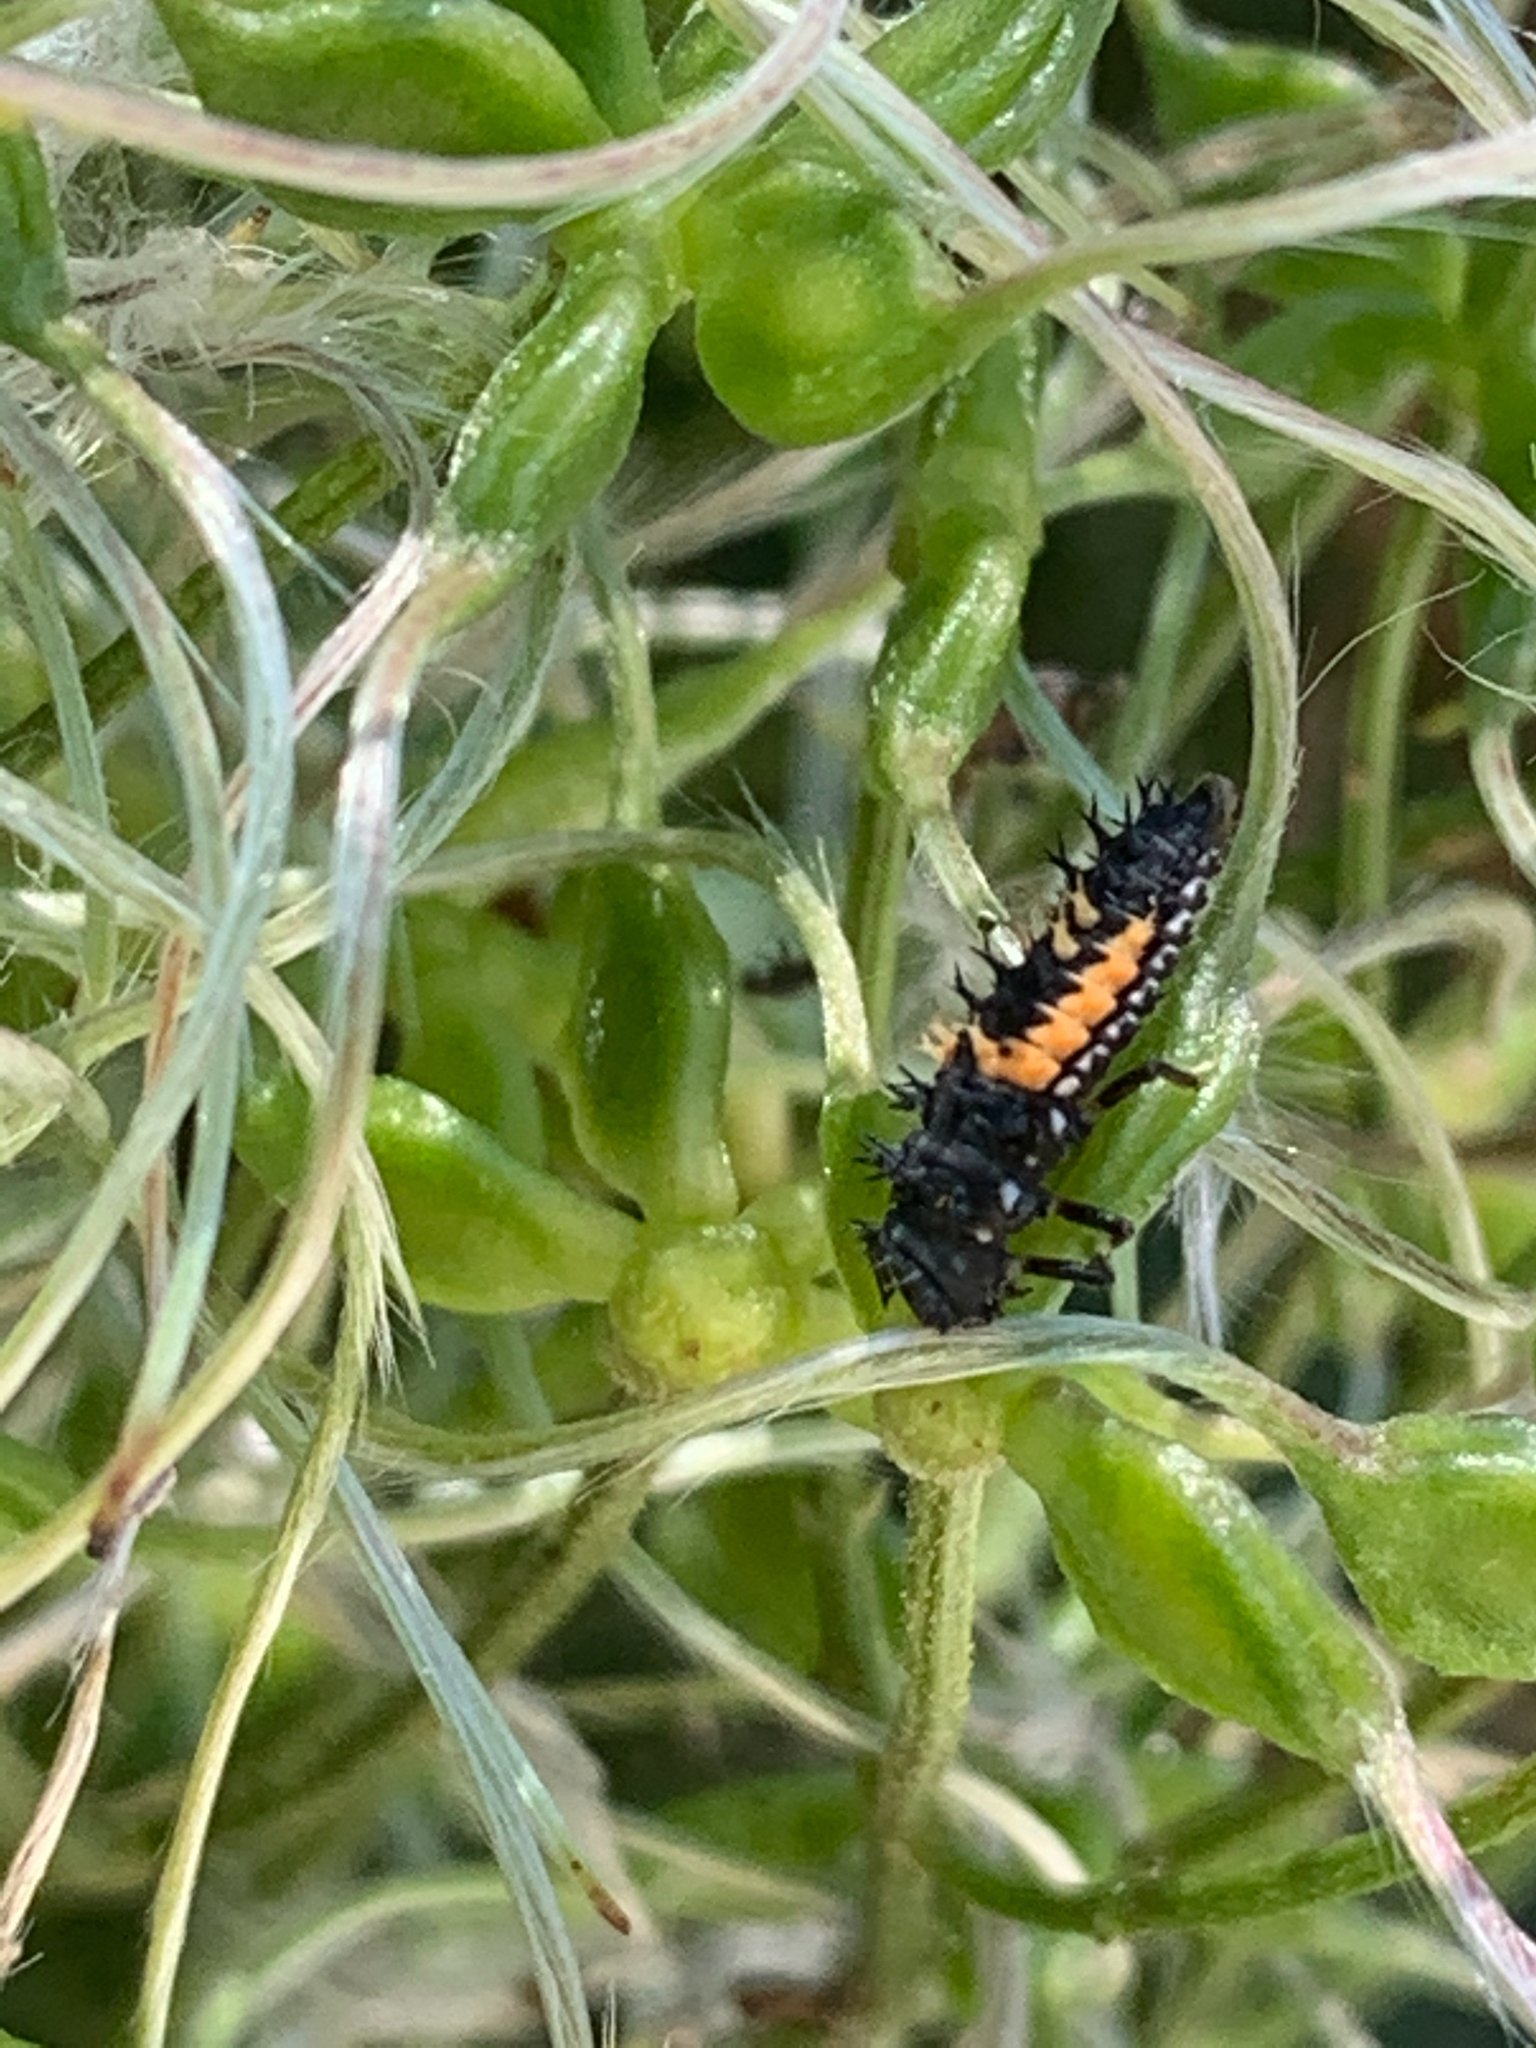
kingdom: Animalia
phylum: Arthropoda
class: Insecta
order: Coleoptera
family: Coccinellidae
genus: Harmonia
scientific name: Harmonia axyridis
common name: Harlequin ladybird
